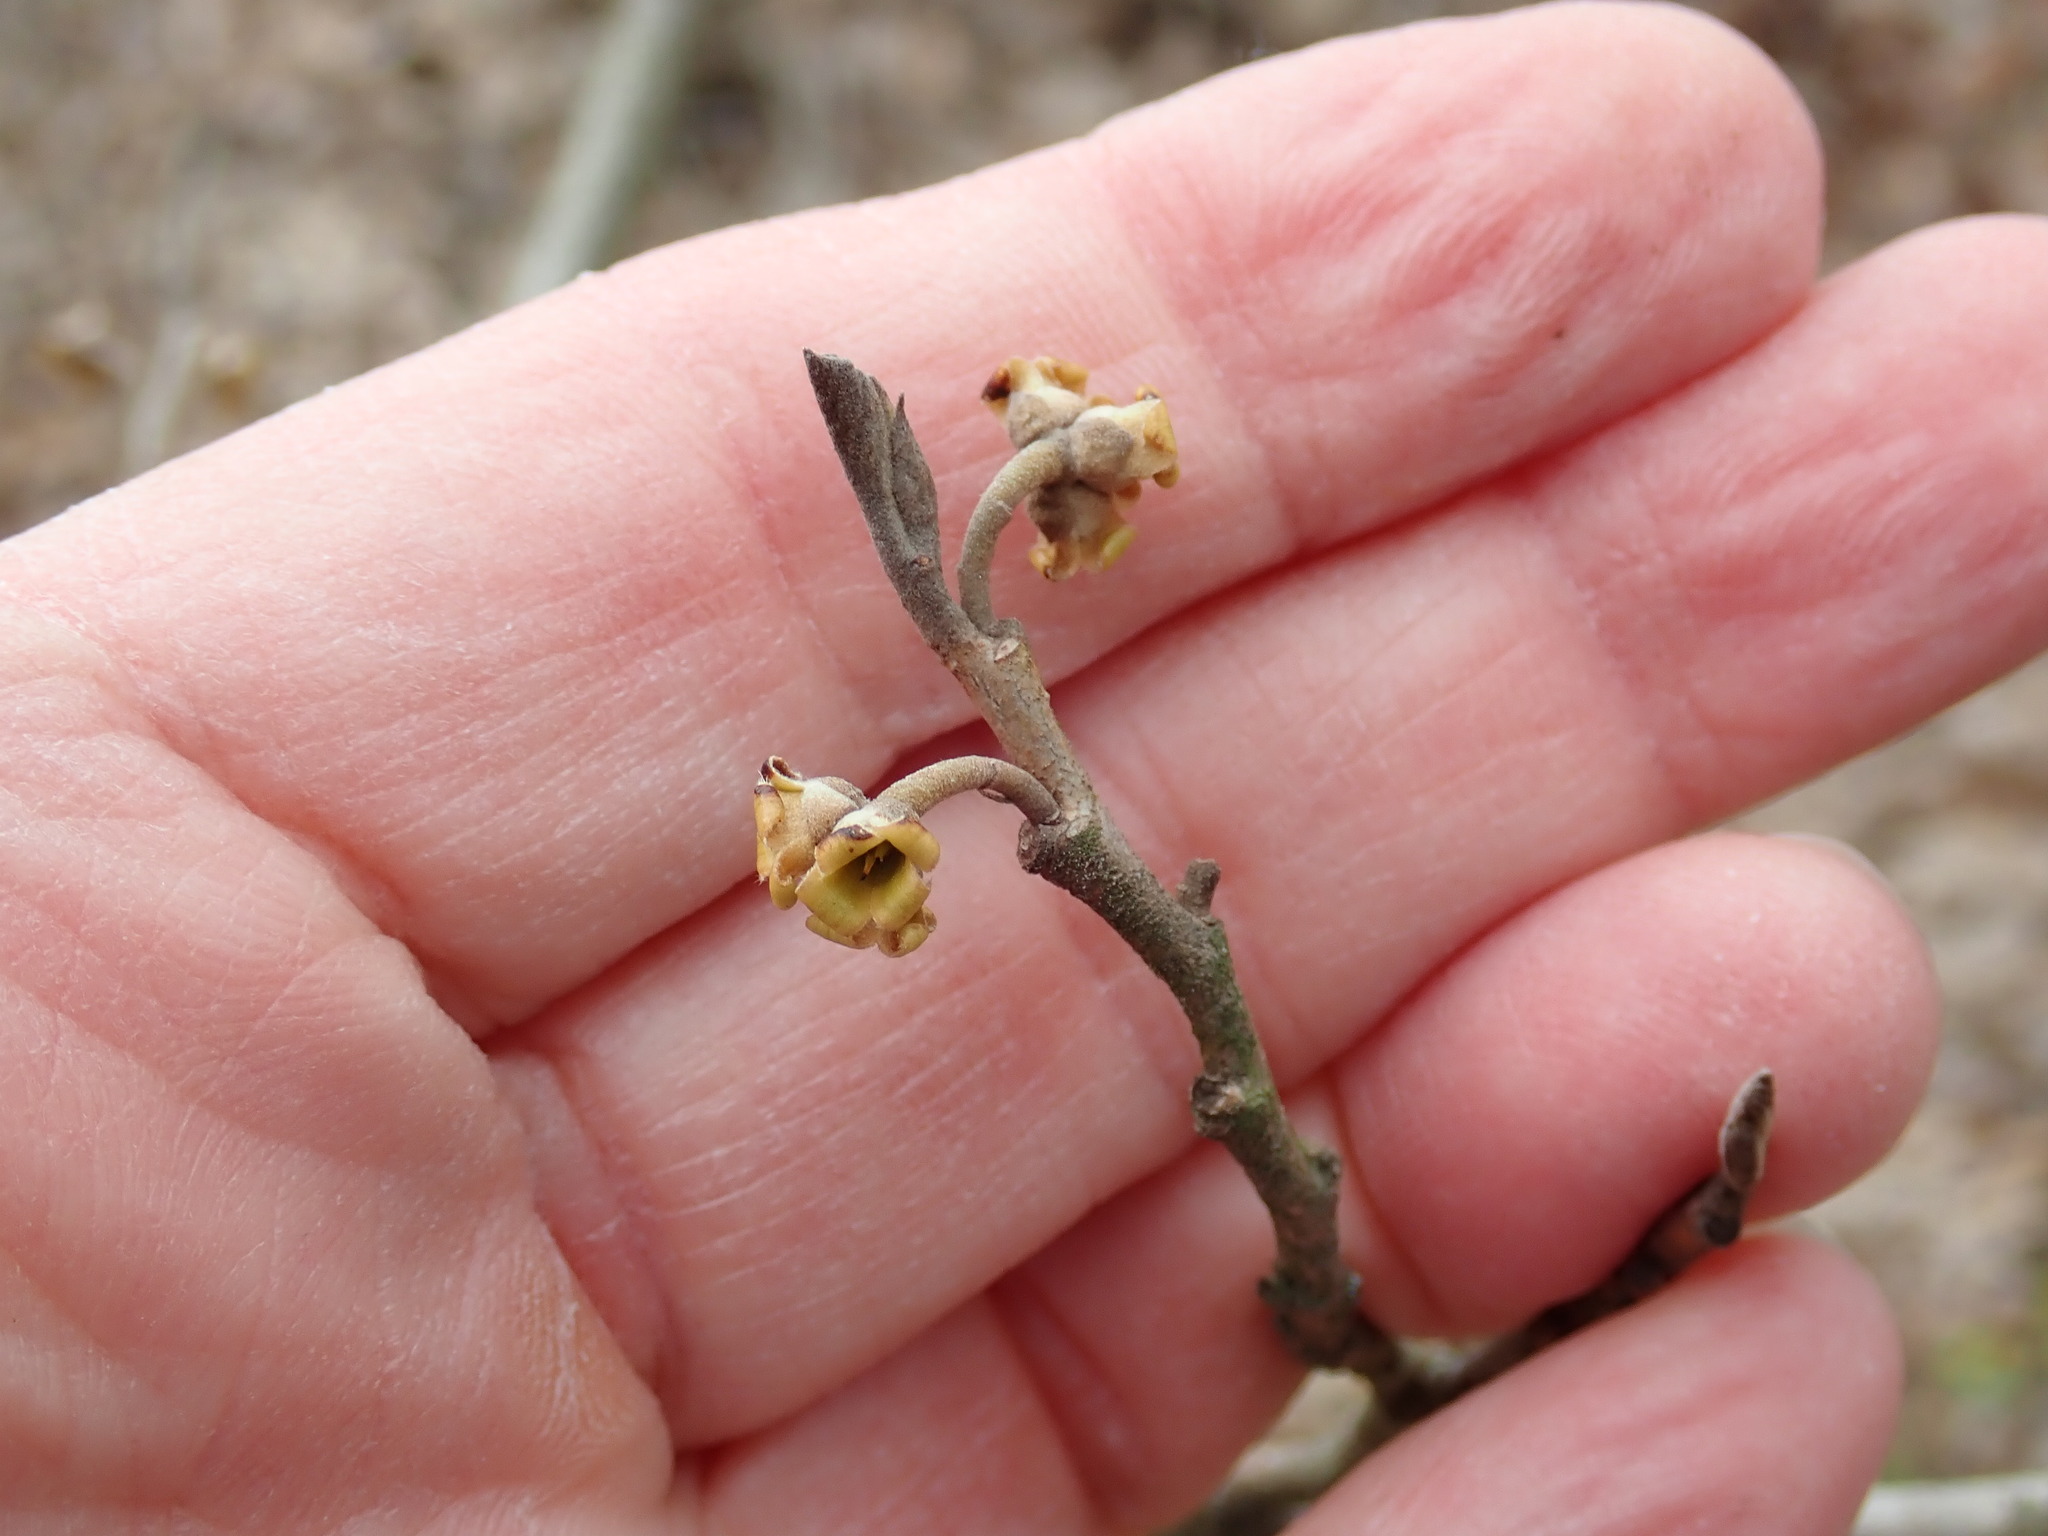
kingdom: Plantae
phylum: Tracheophyta
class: Magnoliopsida
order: Saxifragales
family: Hamamelidaceae
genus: Hamamelis
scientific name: Hamamelis virginiana
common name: Witch-hazel
